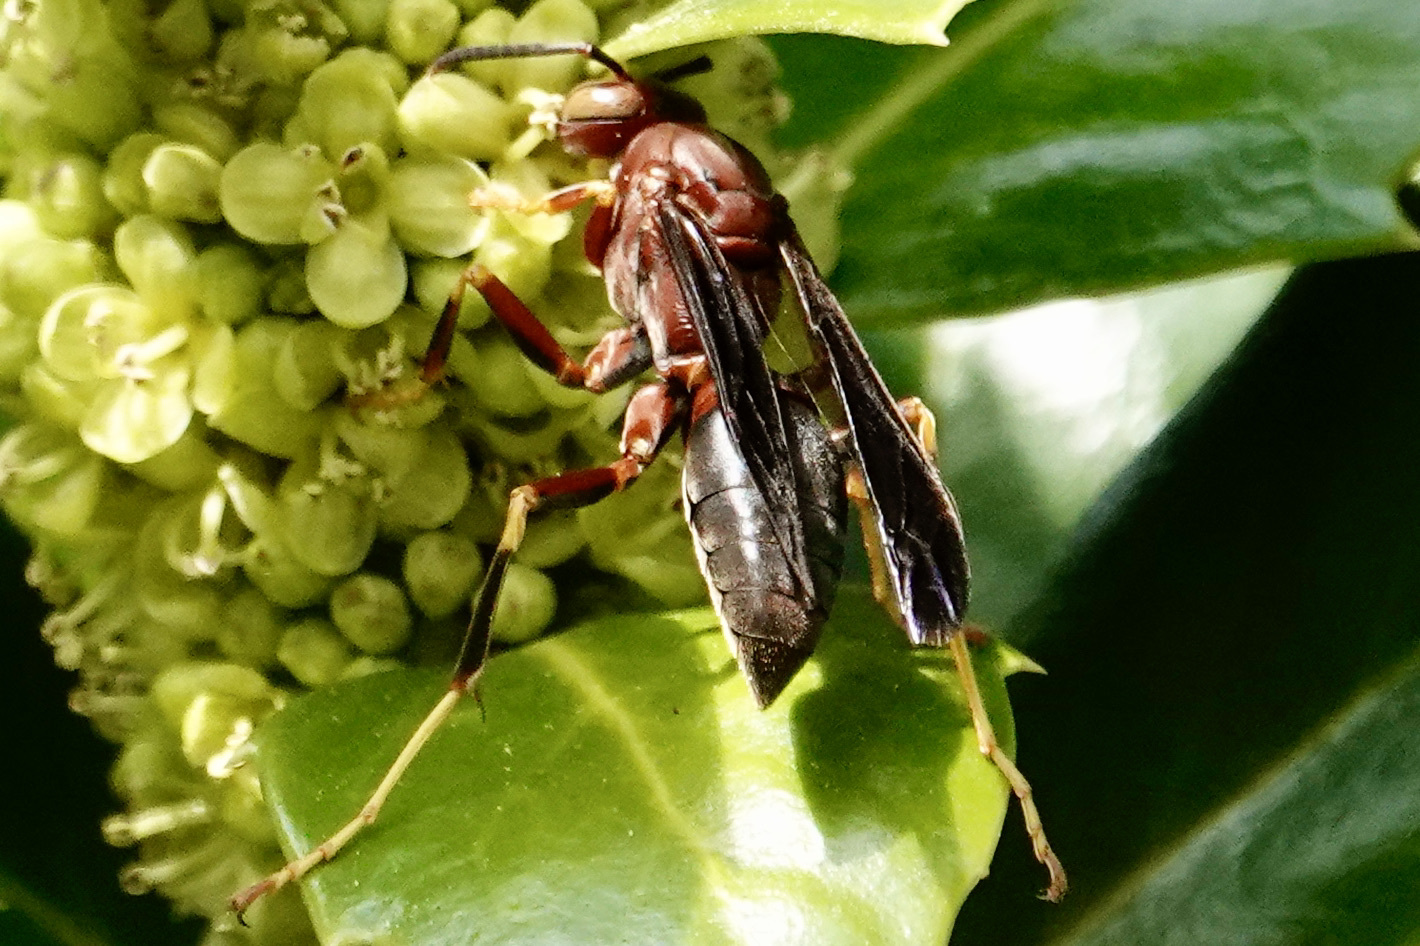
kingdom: Animalia
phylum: Arthropoda
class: Insecta
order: Hymenoptera
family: Eumenidae
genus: Polistes
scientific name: Polistes metricus
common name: Metric paper wasp
